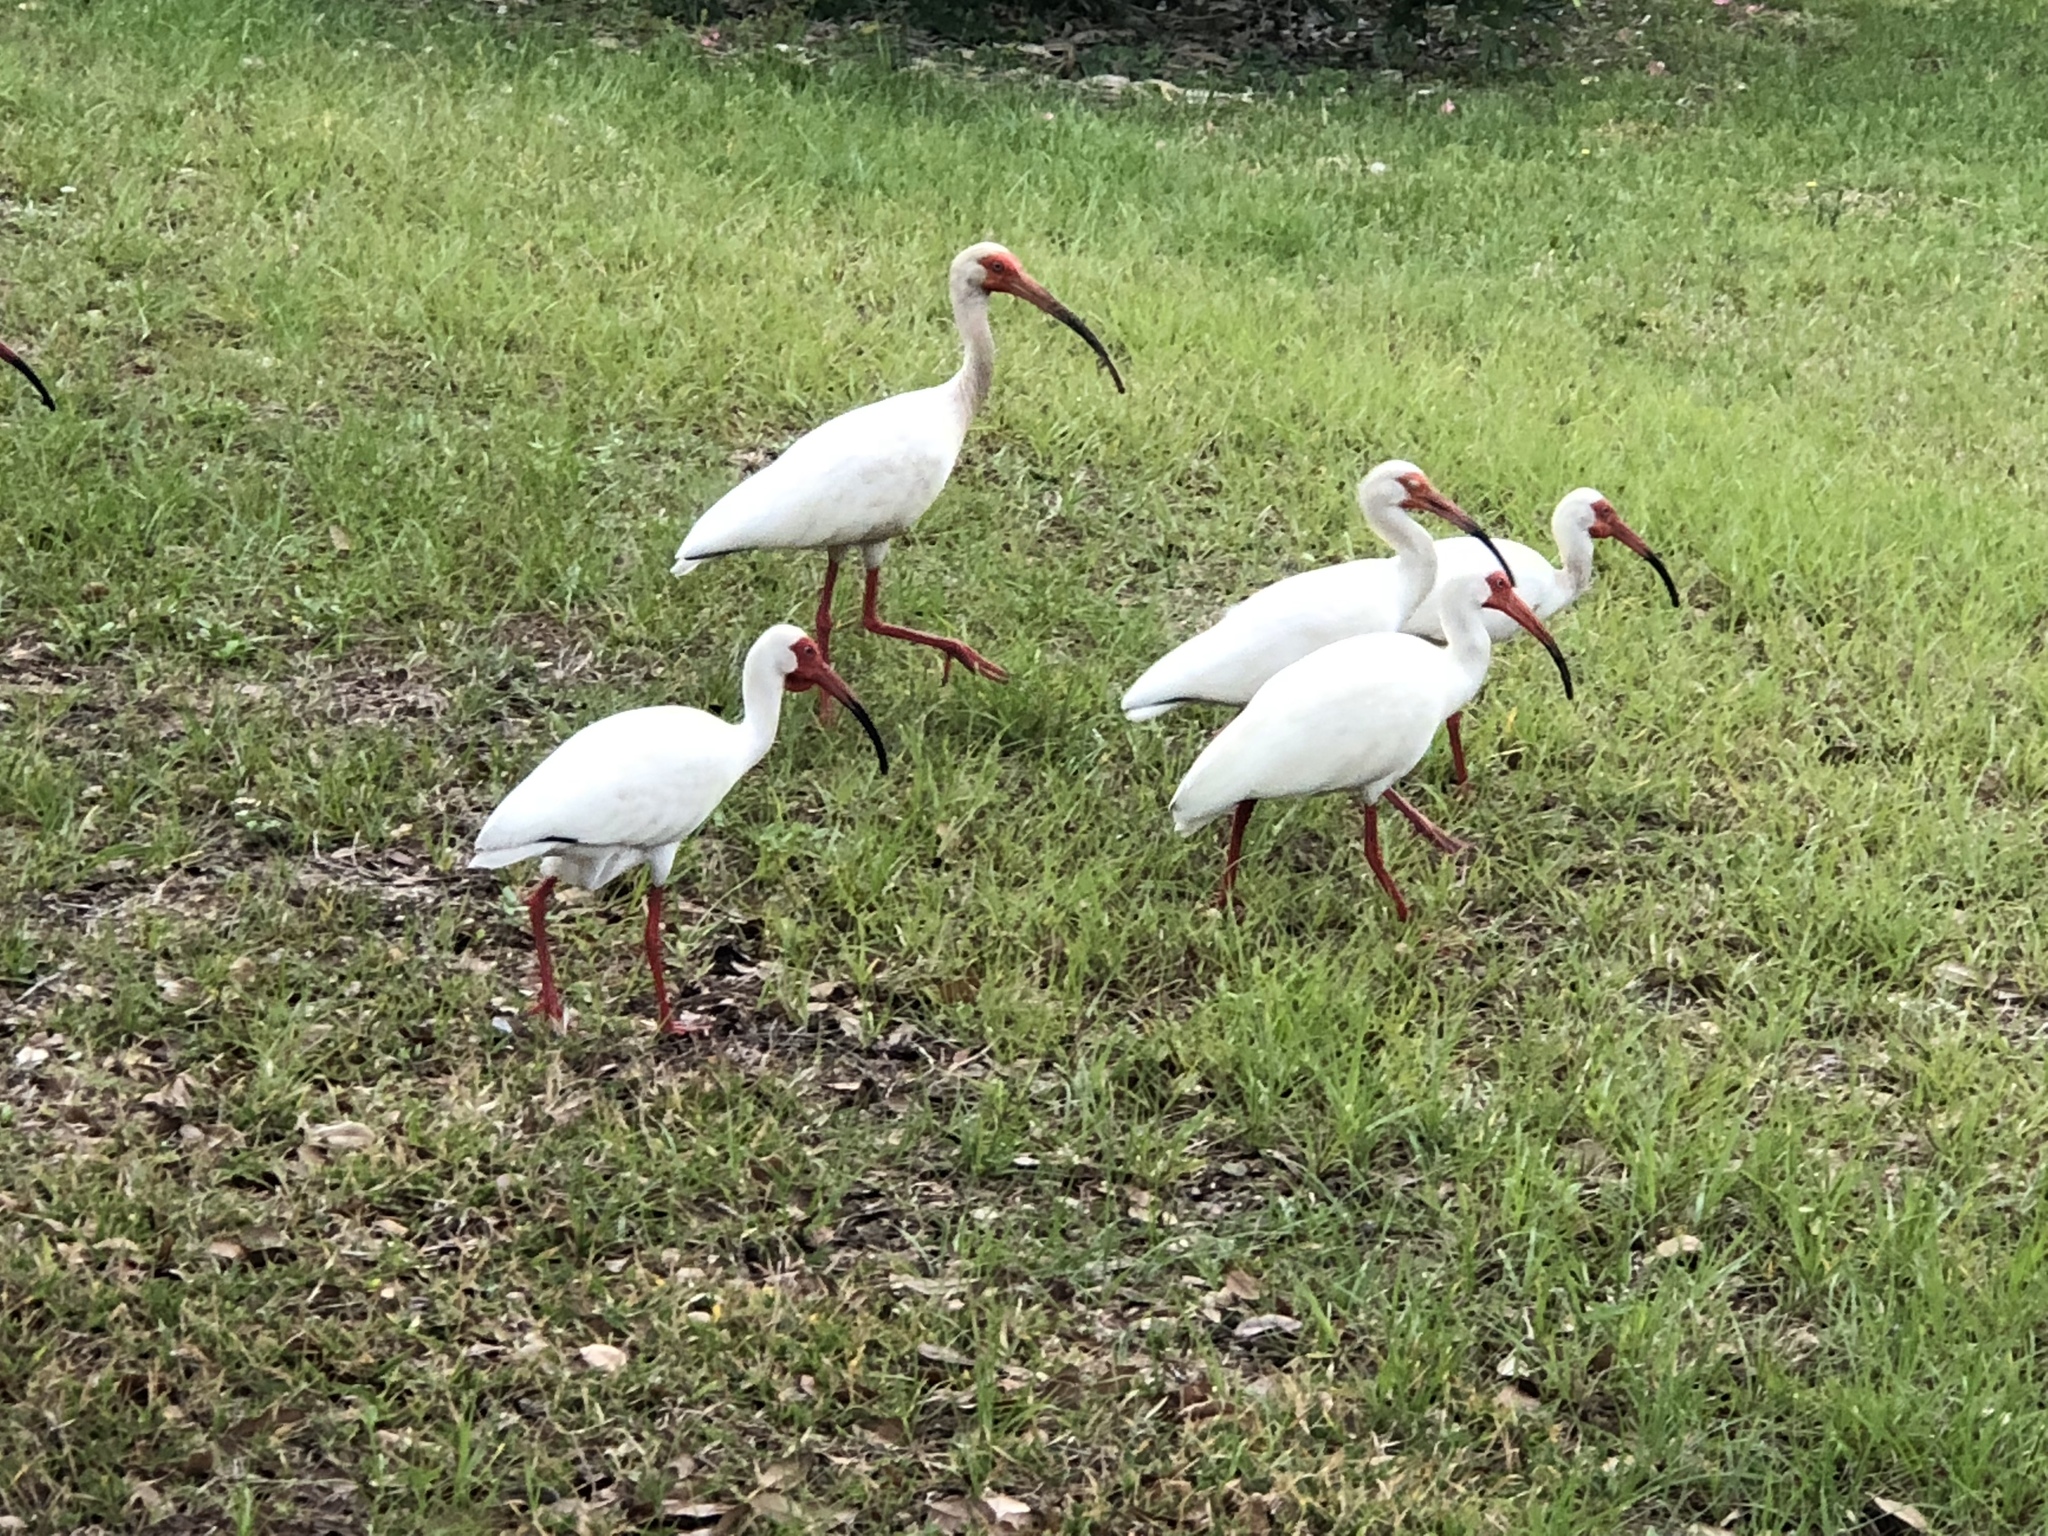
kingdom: Animalia
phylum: Chordata
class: Aves
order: Pelecaniformes
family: Threskiornithidae
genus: Eudocimus
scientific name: Eudocimus albus
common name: White ibis
